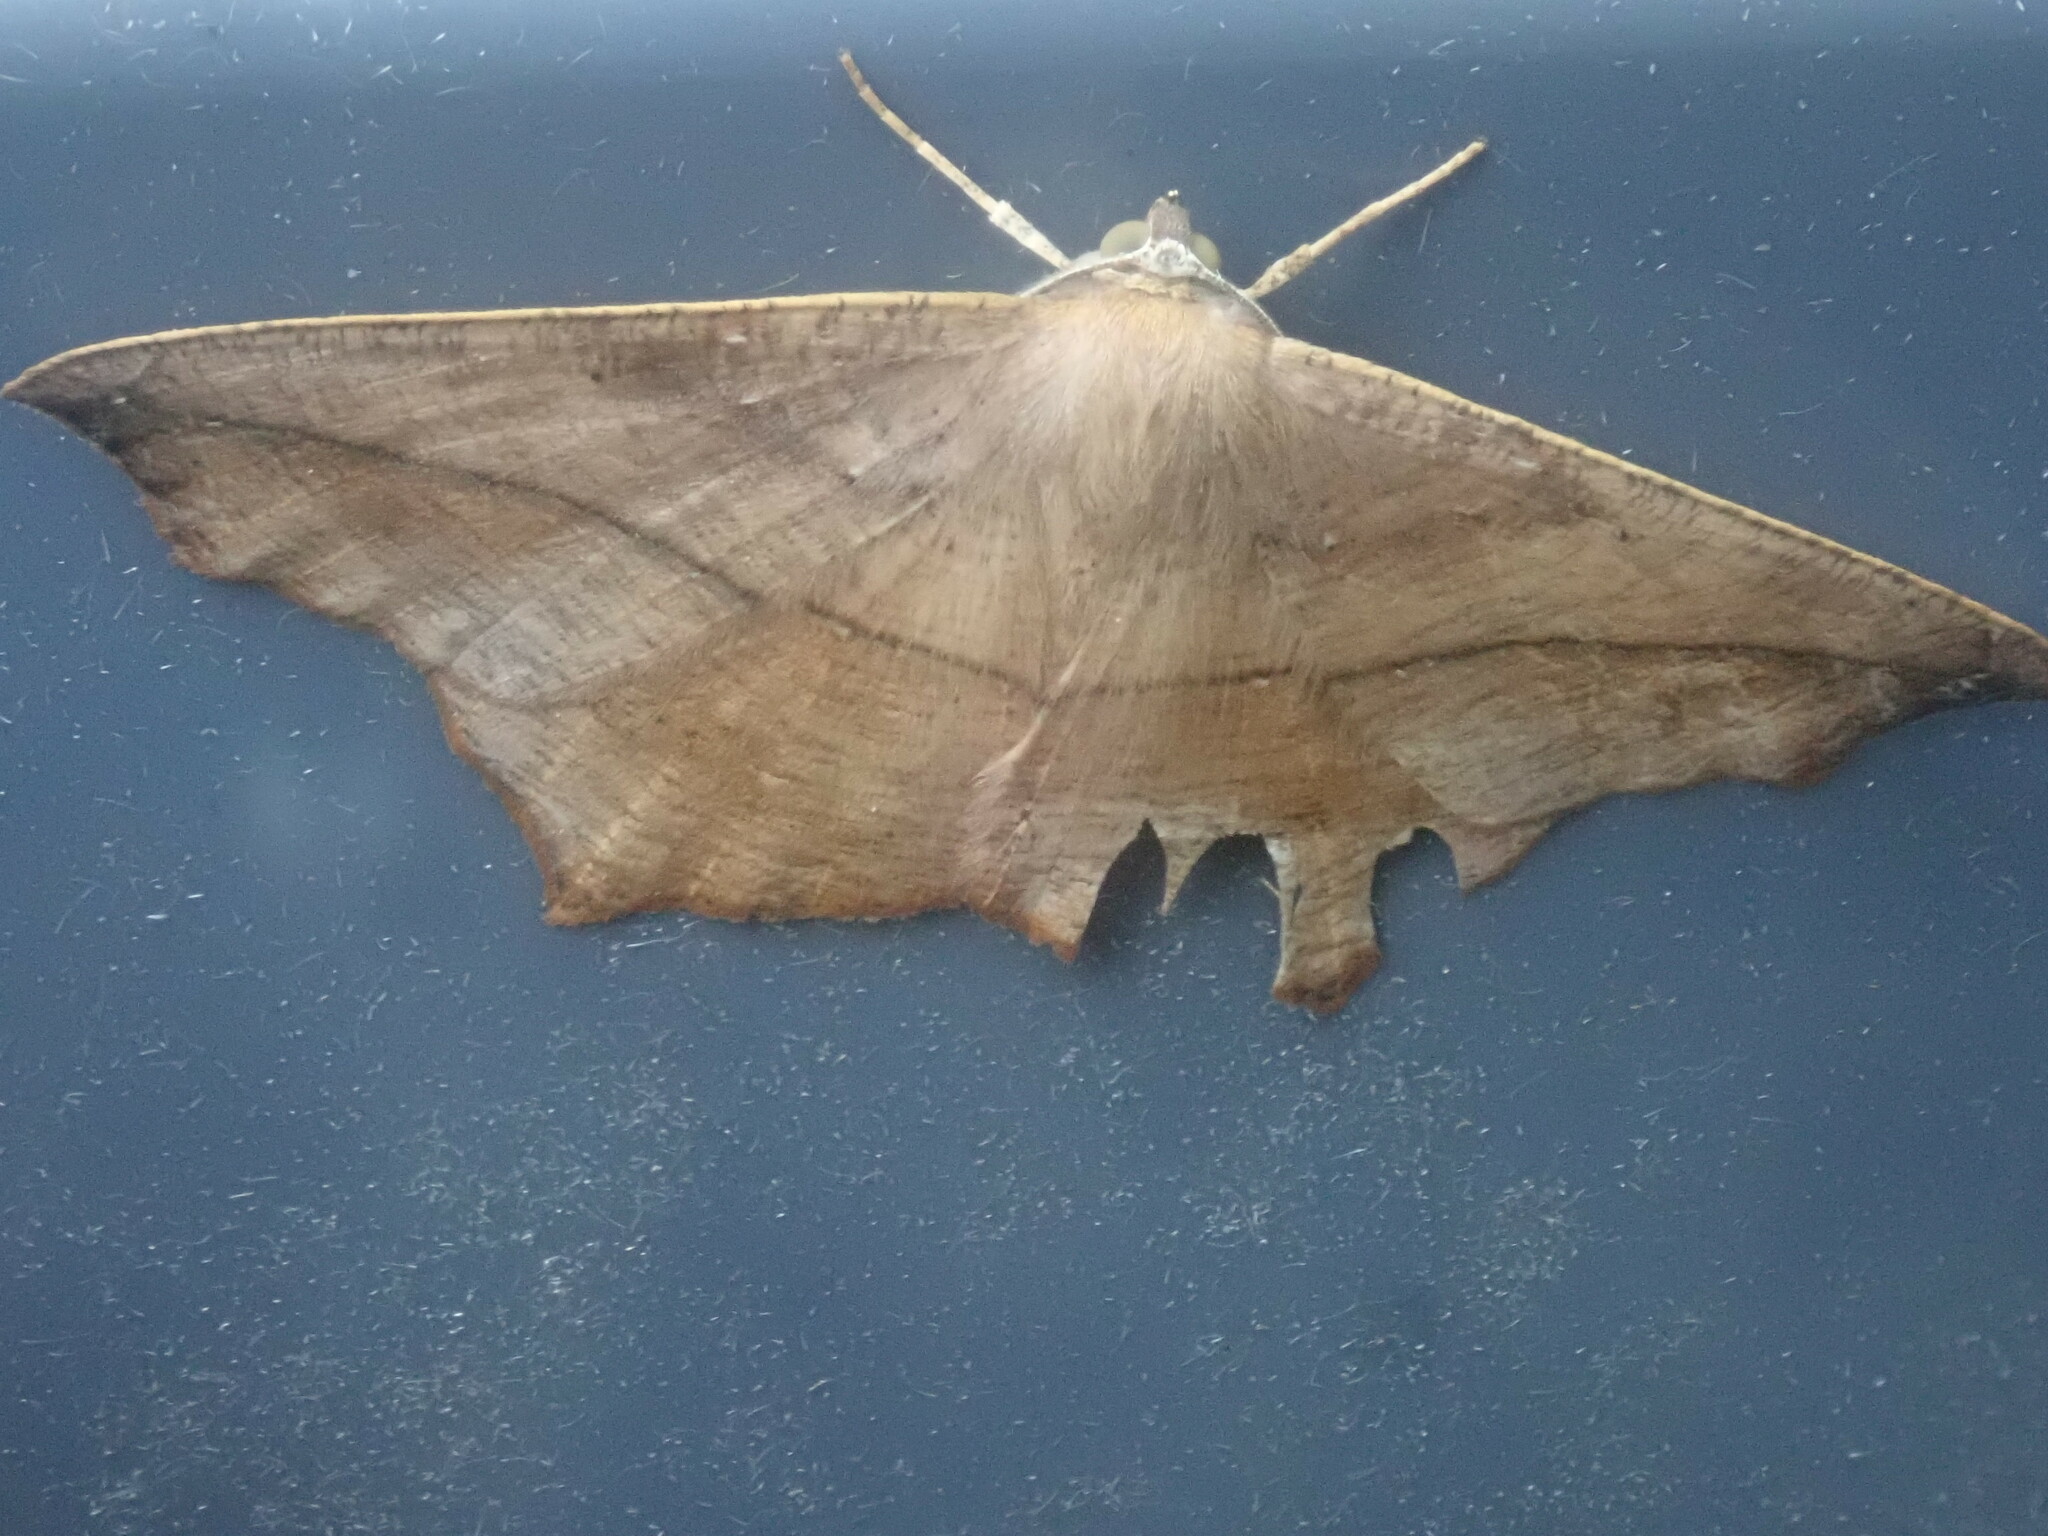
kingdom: Animalia
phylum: Arthropoda
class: Insecta
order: Lepidoptera
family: Geometridae
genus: Prochoerodes
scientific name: Prochoerodes lineola
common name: Large maple spanworm
